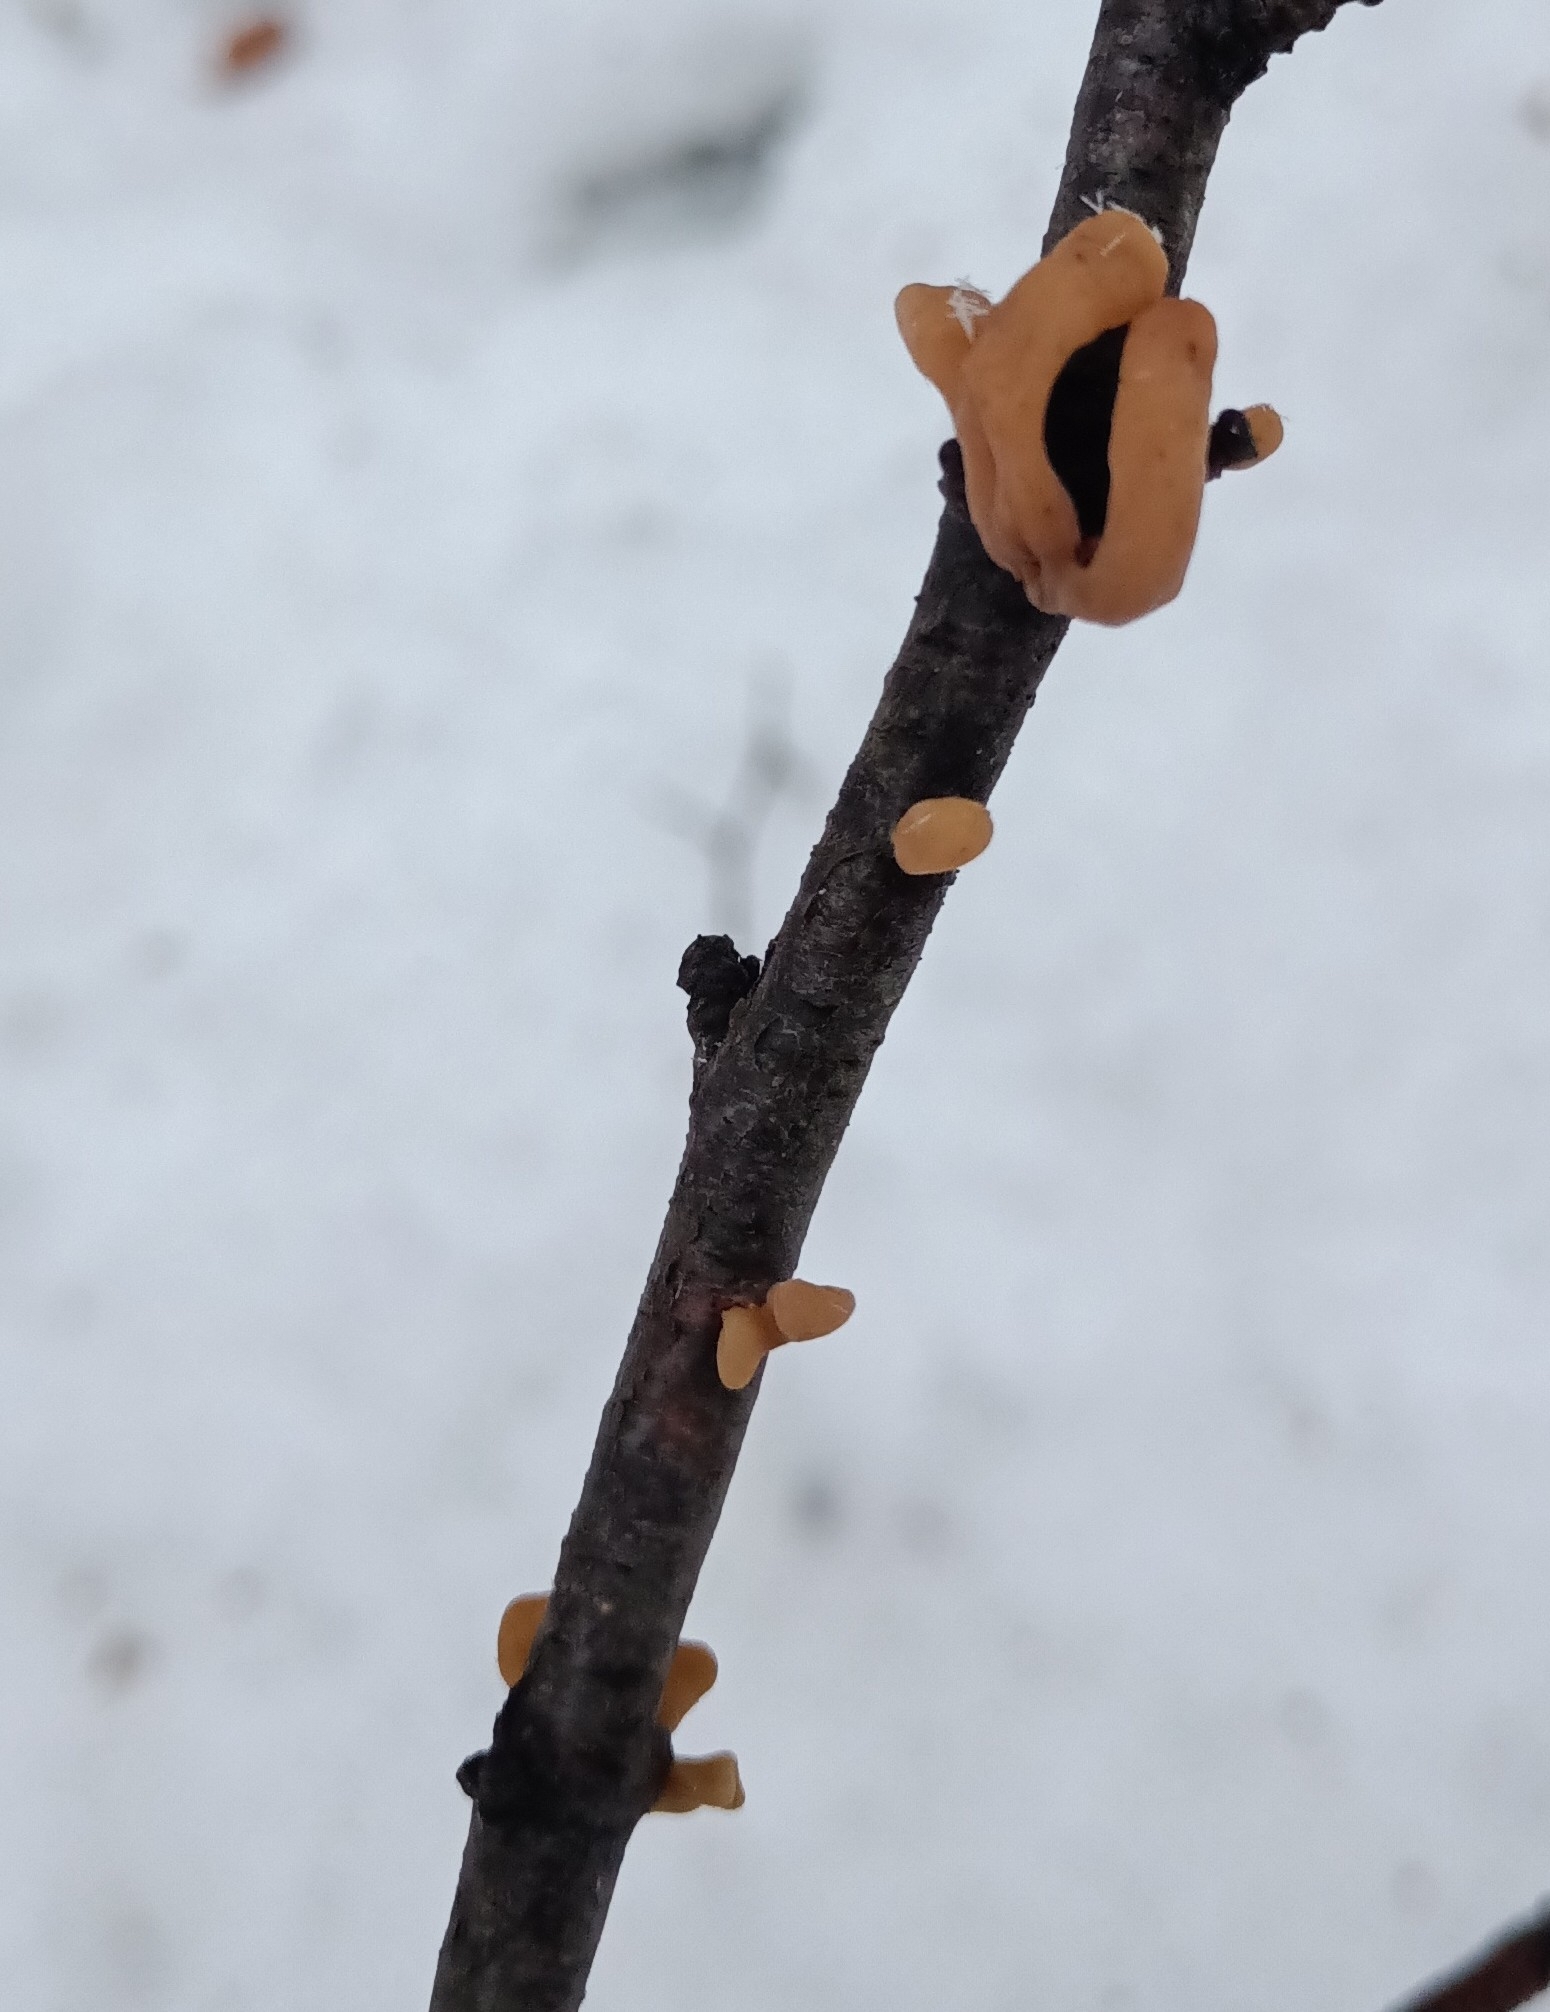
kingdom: Fungi
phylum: Basidiomycota
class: Agaricomycetes
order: Agaricales
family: Typhulaceae
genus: Typhula
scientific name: Typhula contorta
